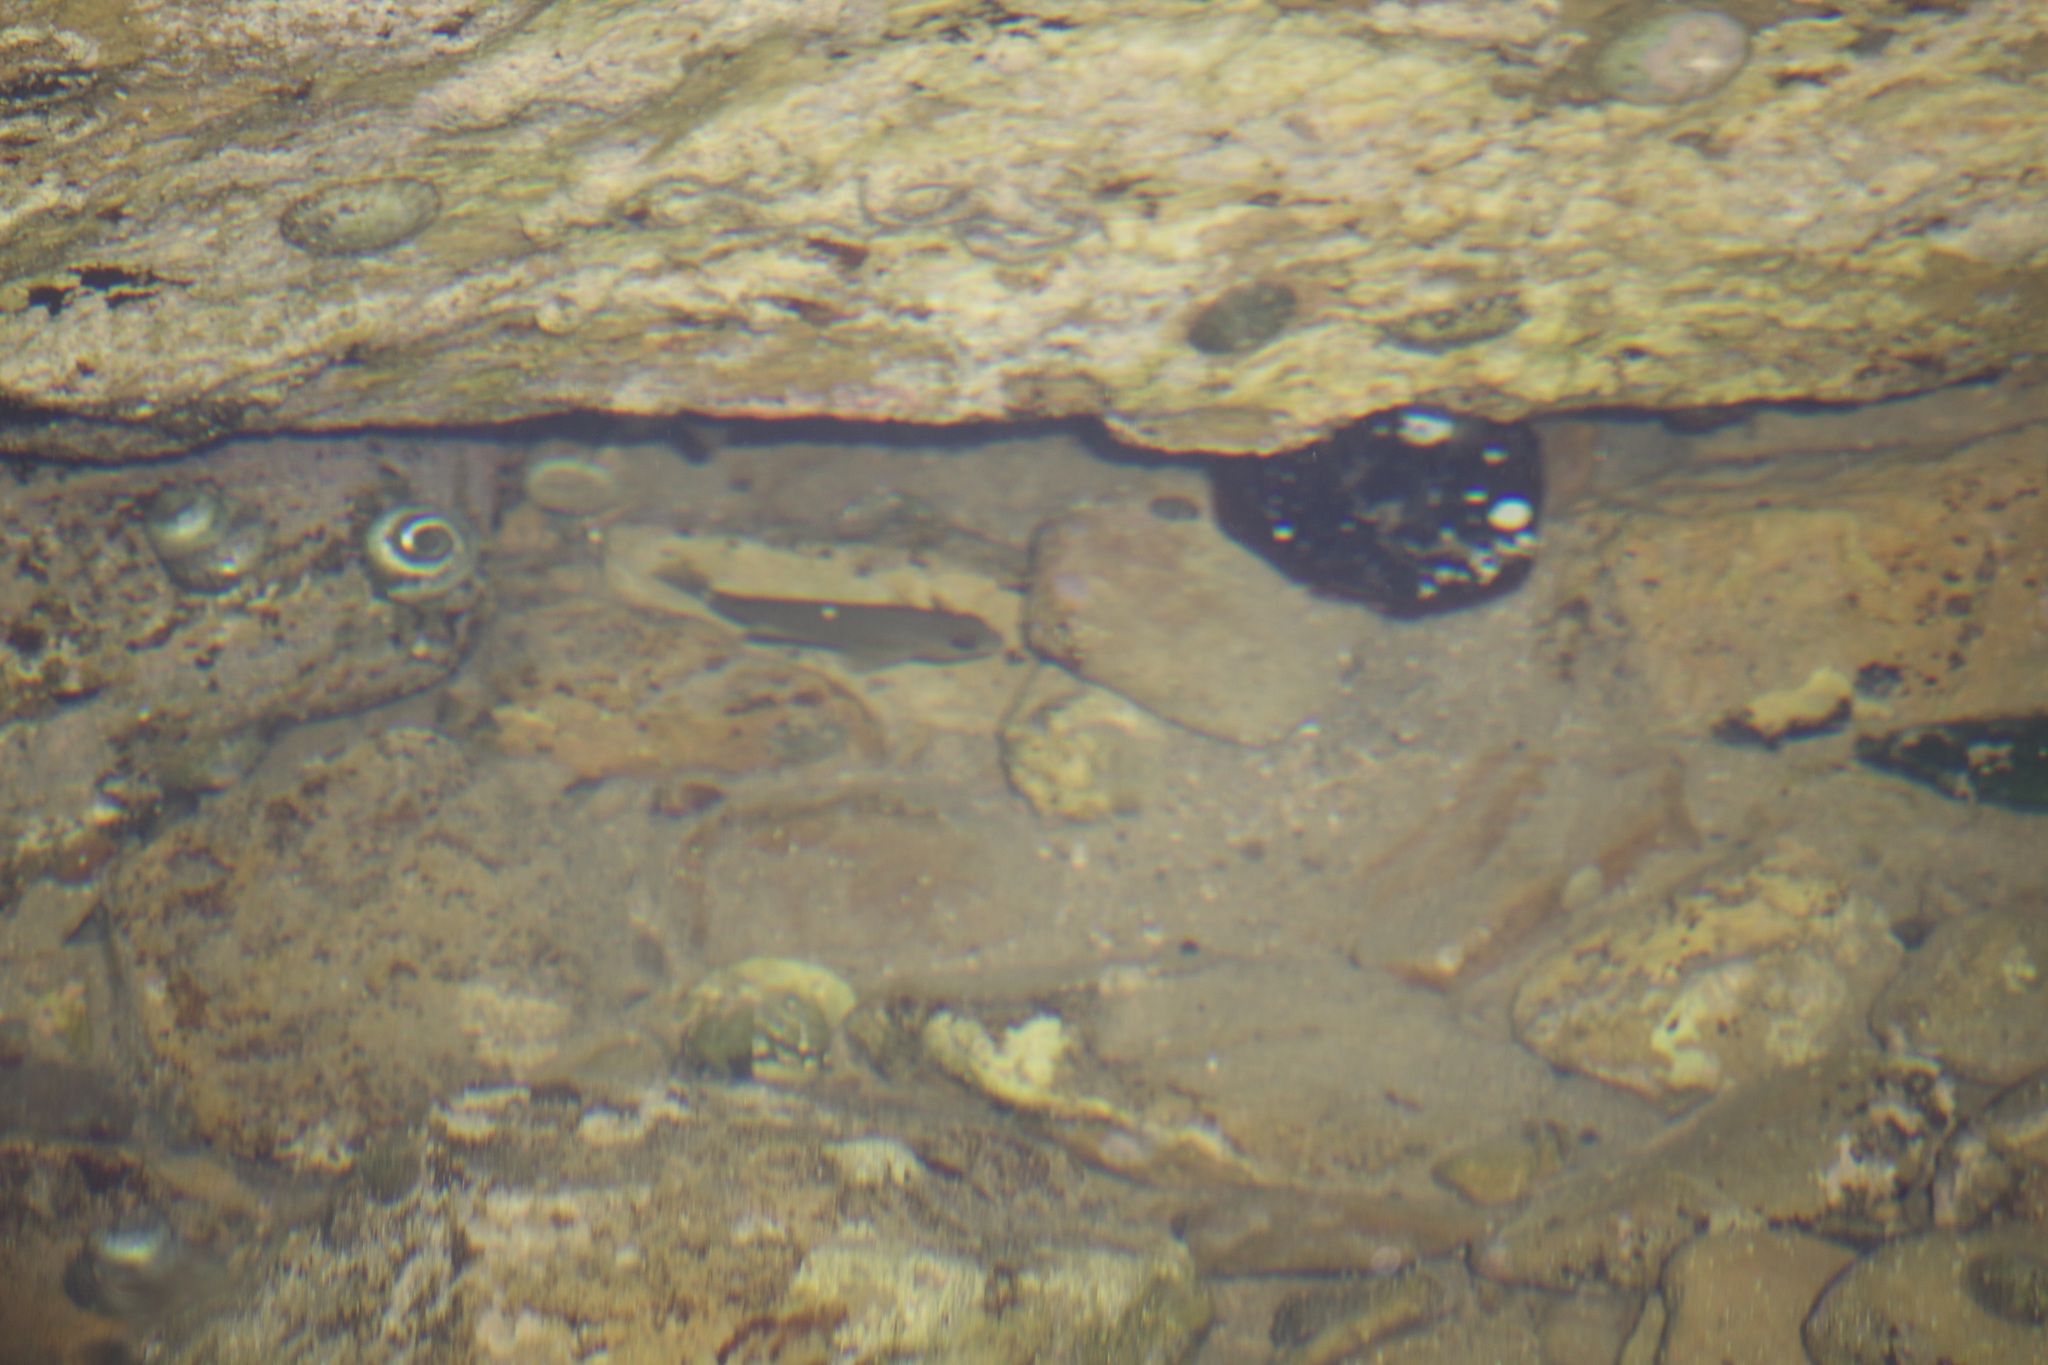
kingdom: Animalia
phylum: Chordata
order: Perciformes
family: Kyphosidae
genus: Girella
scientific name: Girella nigricans
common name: Opaleye
